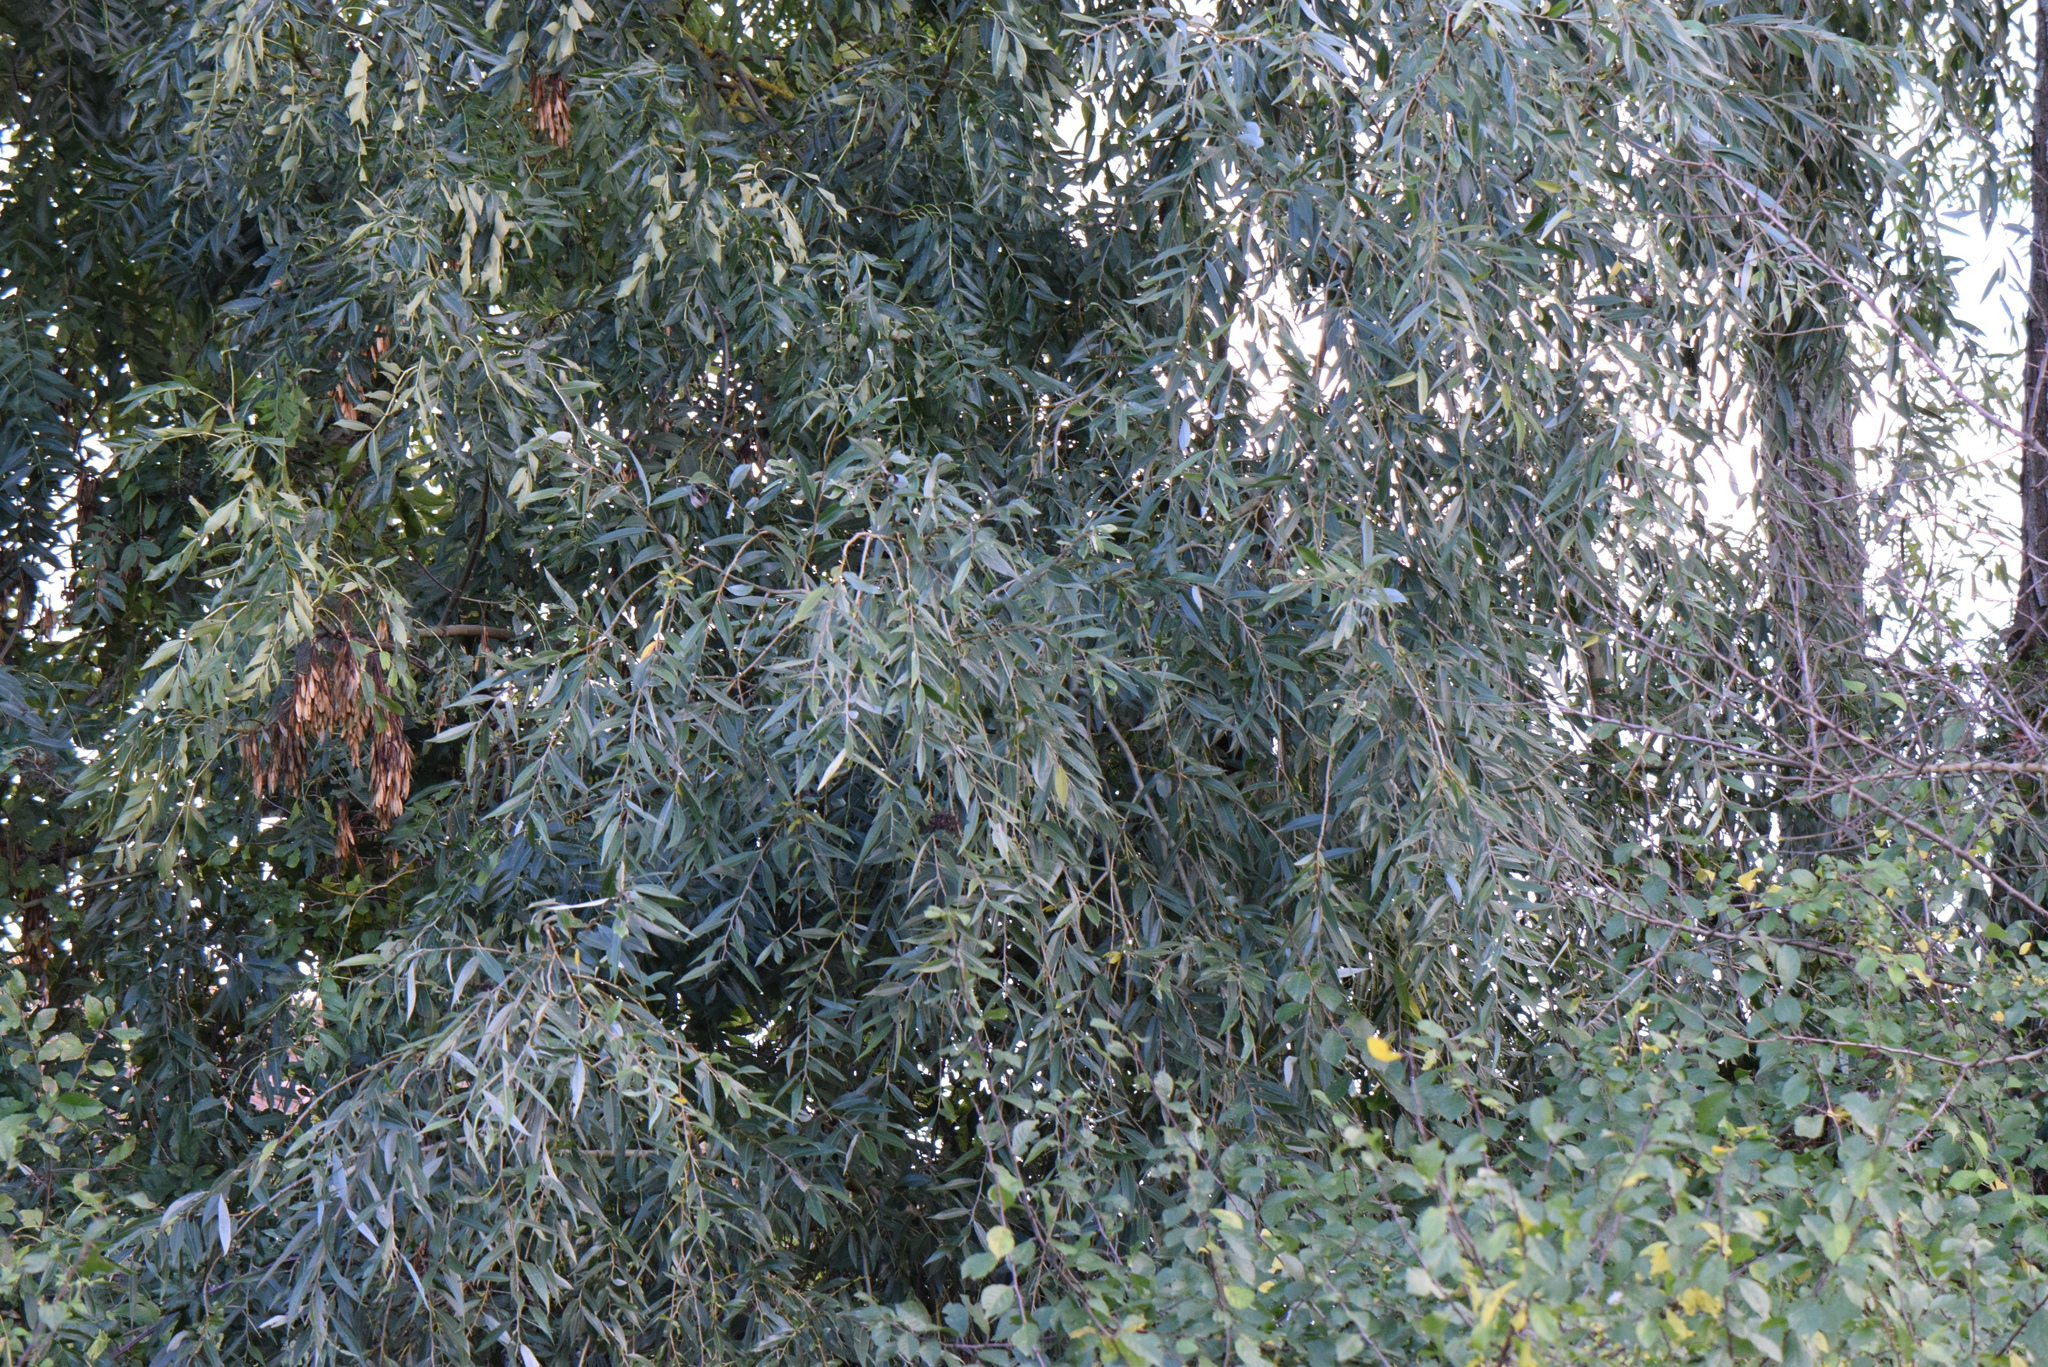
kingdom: Plantae
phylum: Tracheophyta
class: Magnoliopsida
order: Malpighiales
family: Salicaceae
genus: Salix
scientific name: Salix alba
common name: White willow
